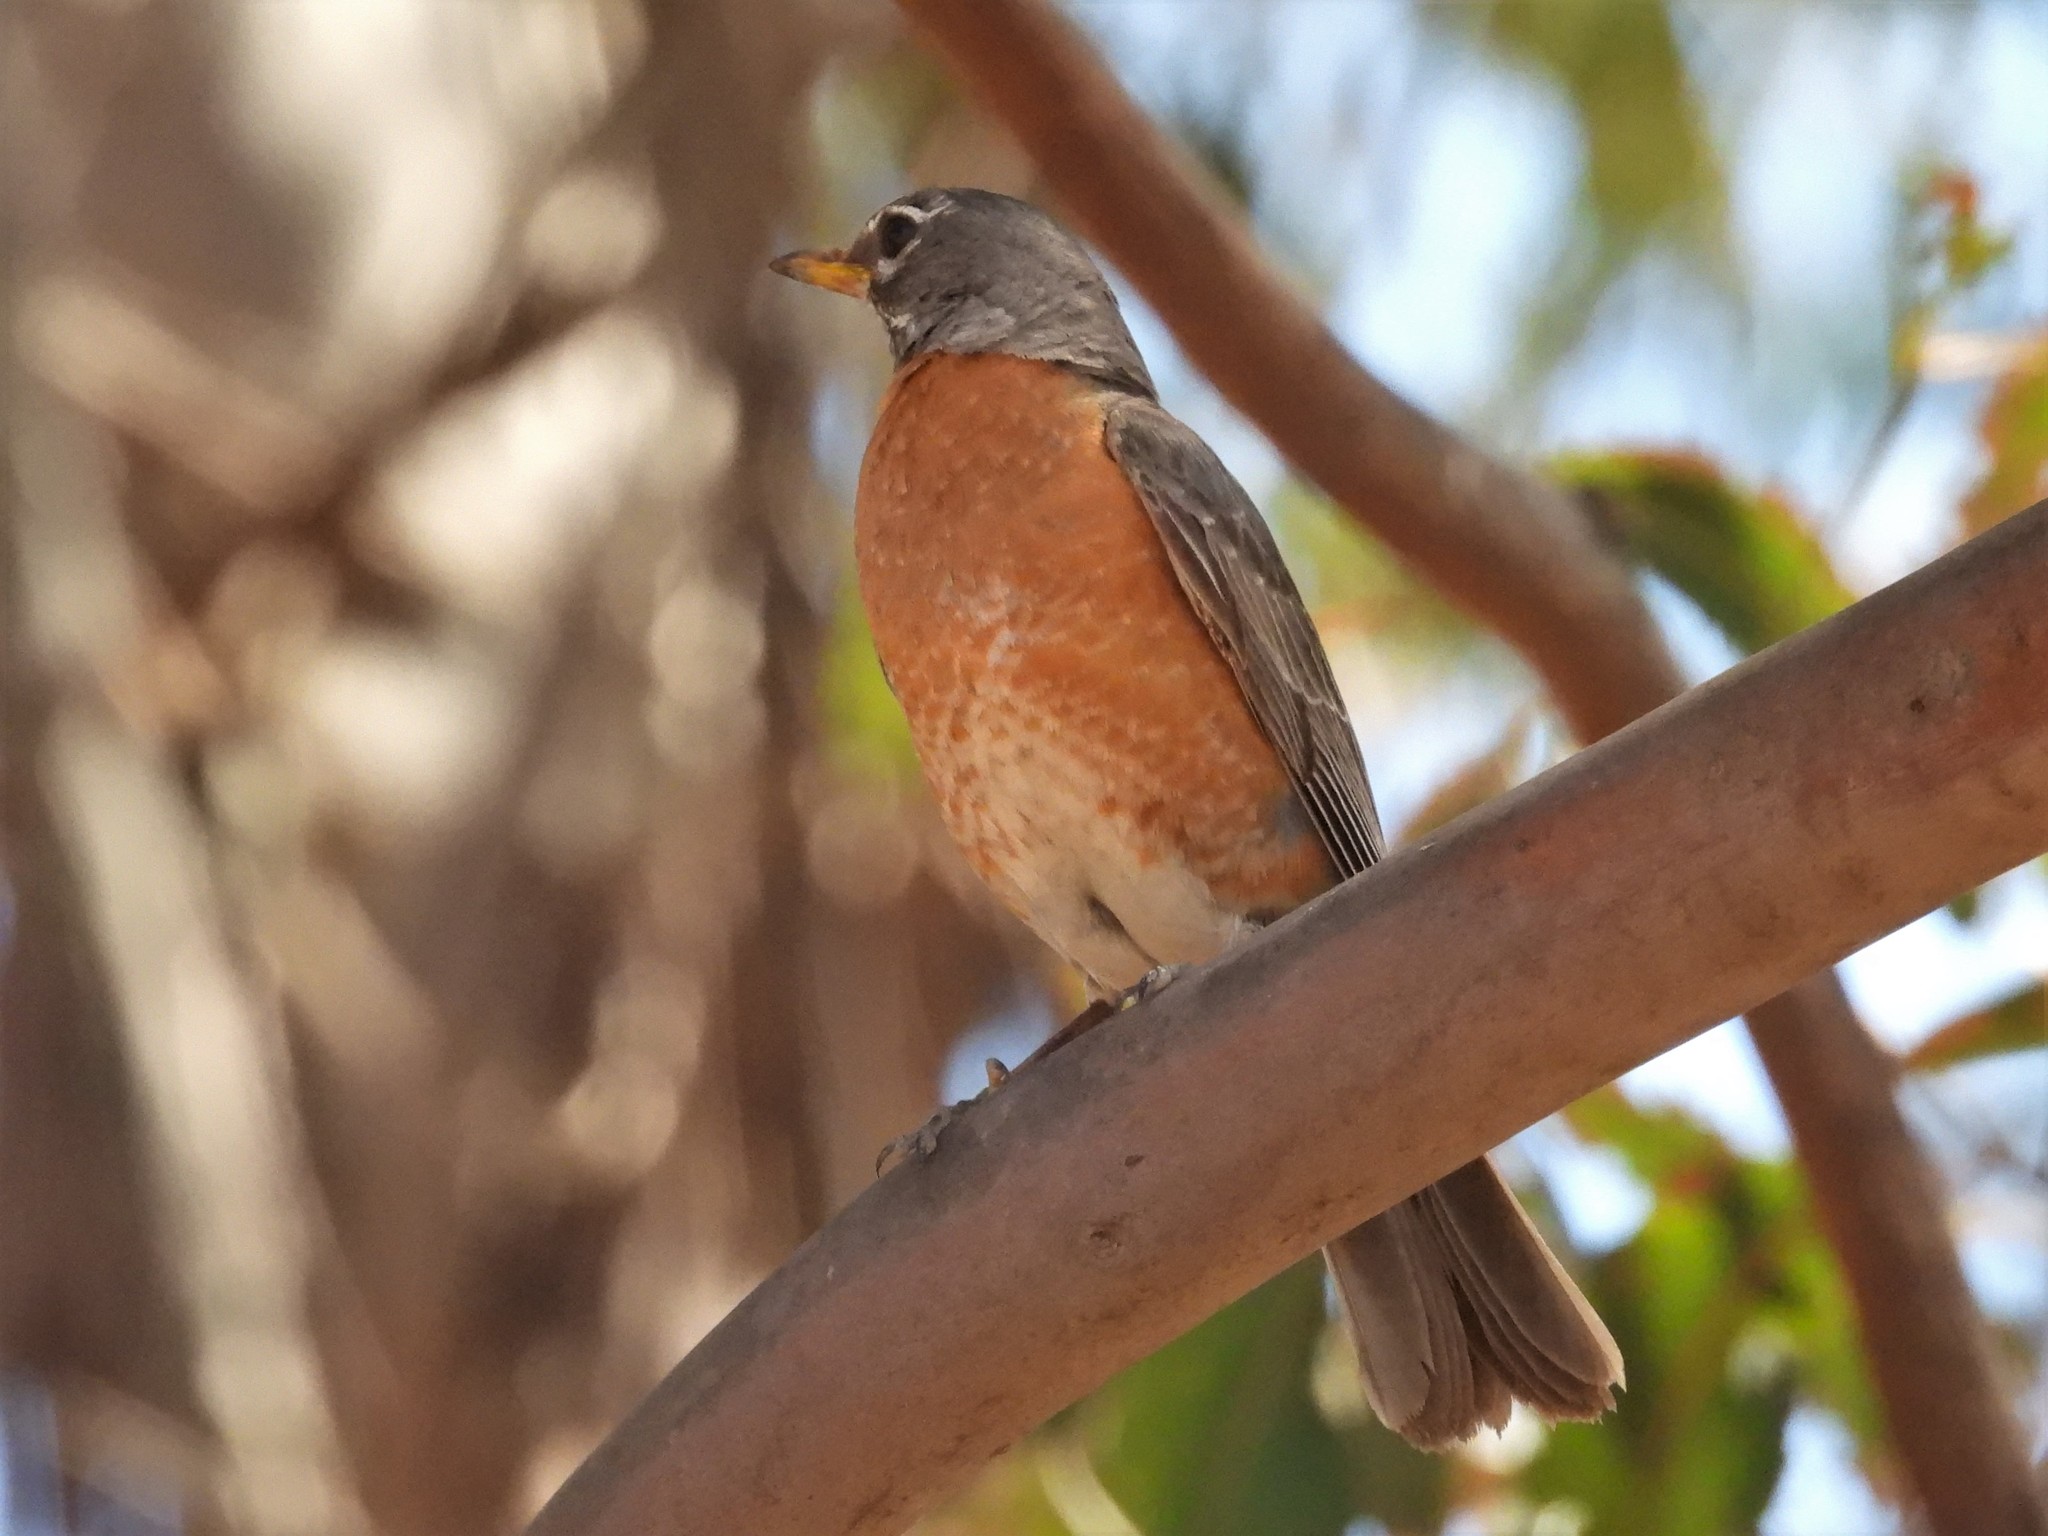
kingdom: Animalia
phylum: Chordata
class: Aves
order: Passeriformes
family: Turdidae
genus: Turdus
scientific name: Turdus migratorius
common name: American robin
